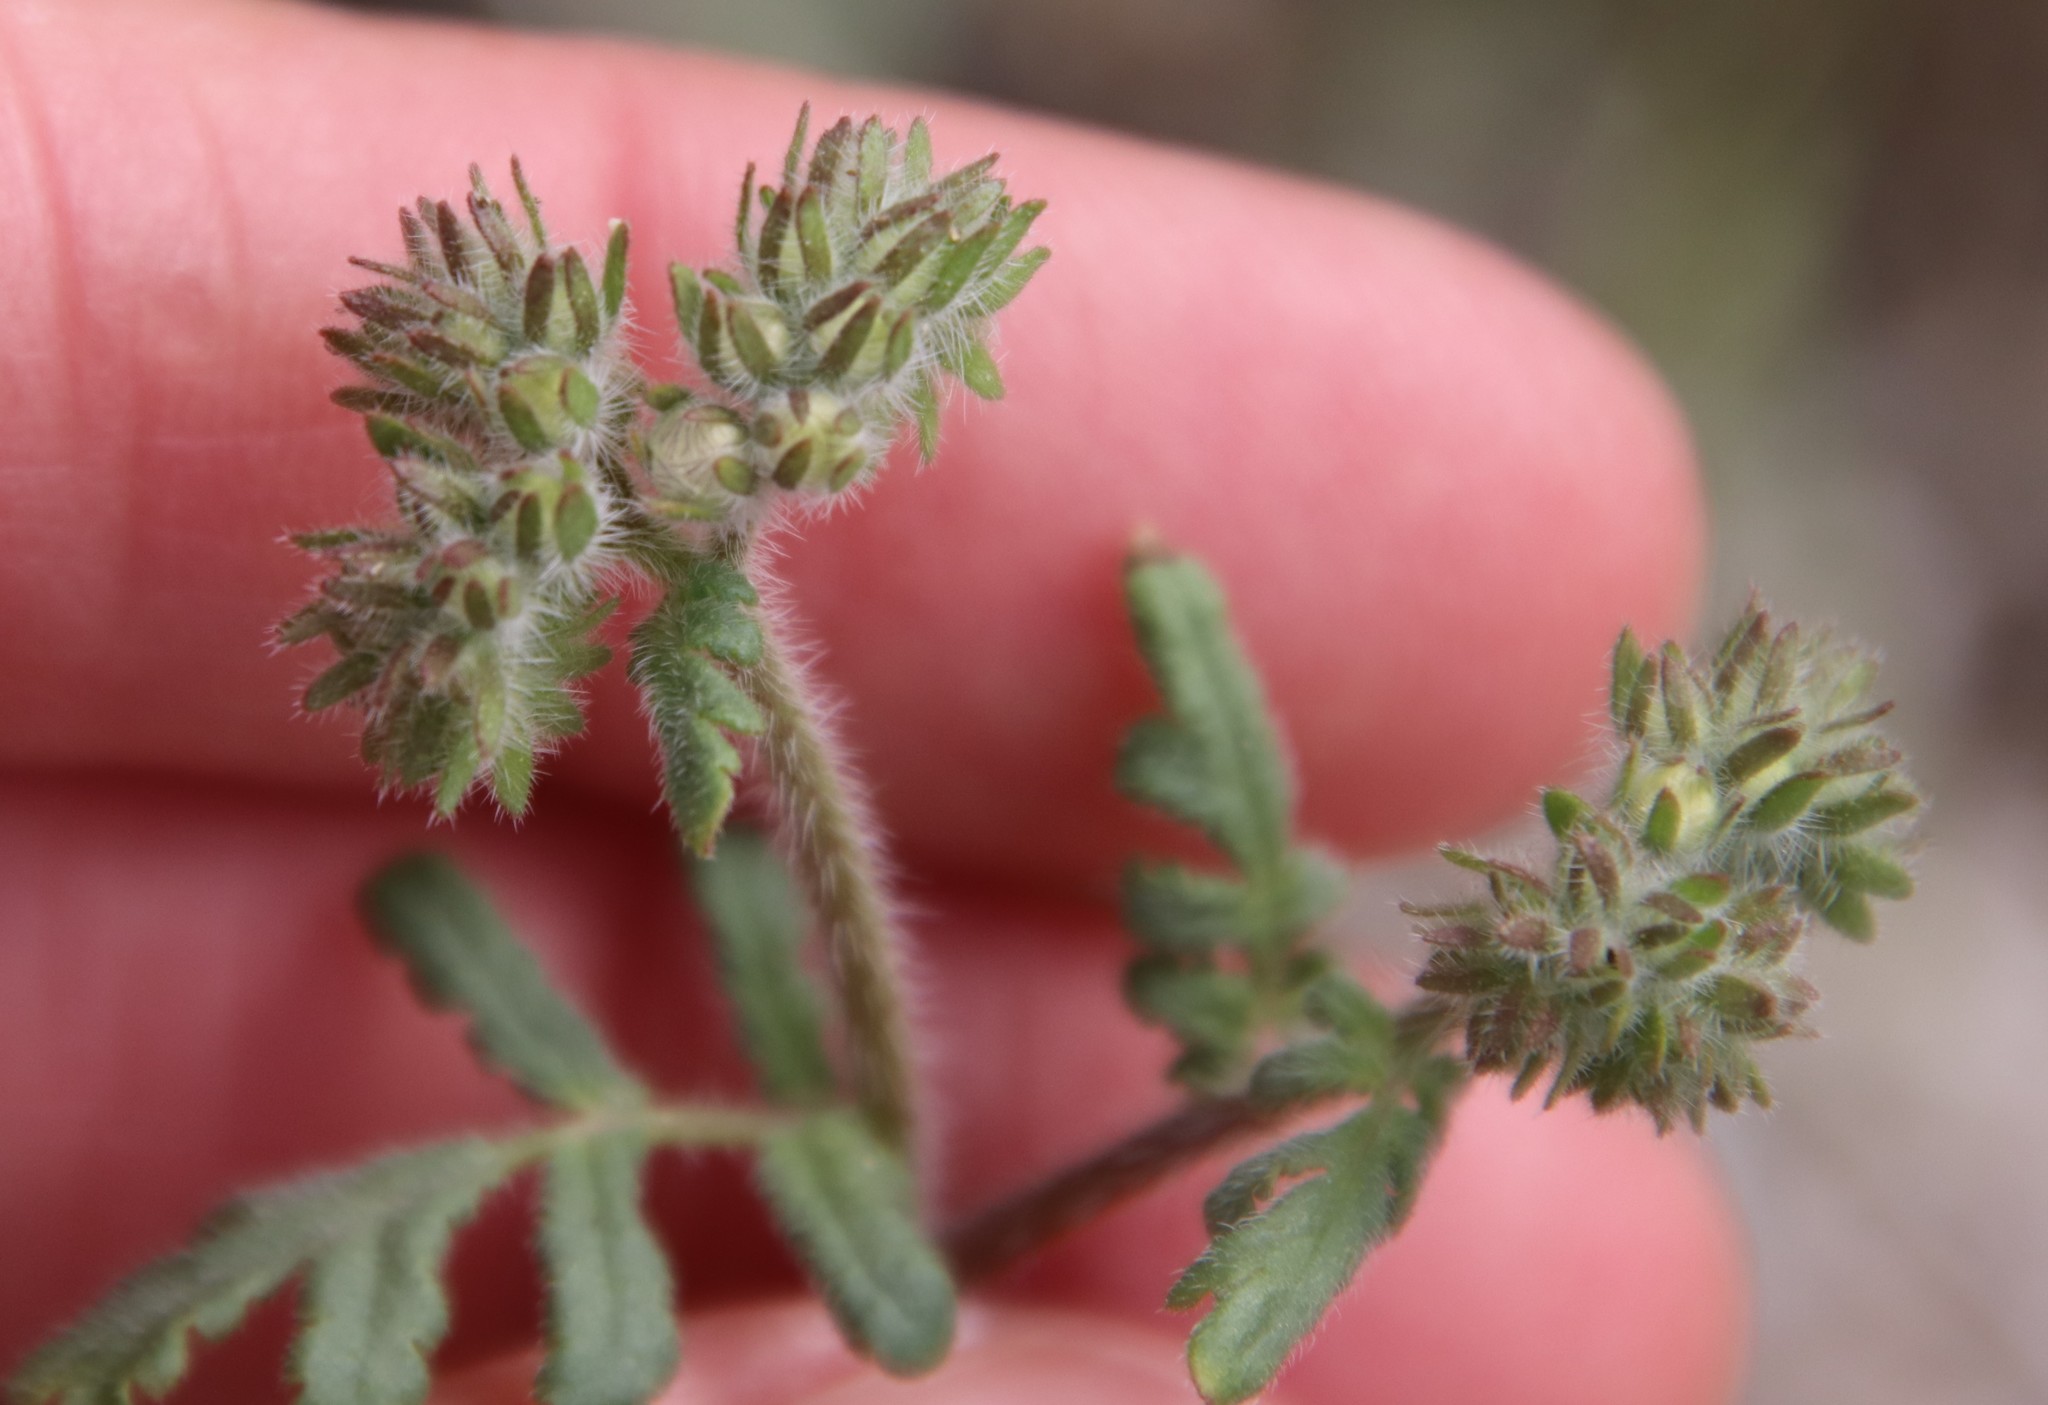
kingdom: Plantae
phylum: Tracheophyta
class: Magnoliopsida
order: Boraginales
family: Hydrophyllaceae
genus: Phacelia
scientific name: Phacelia distans
